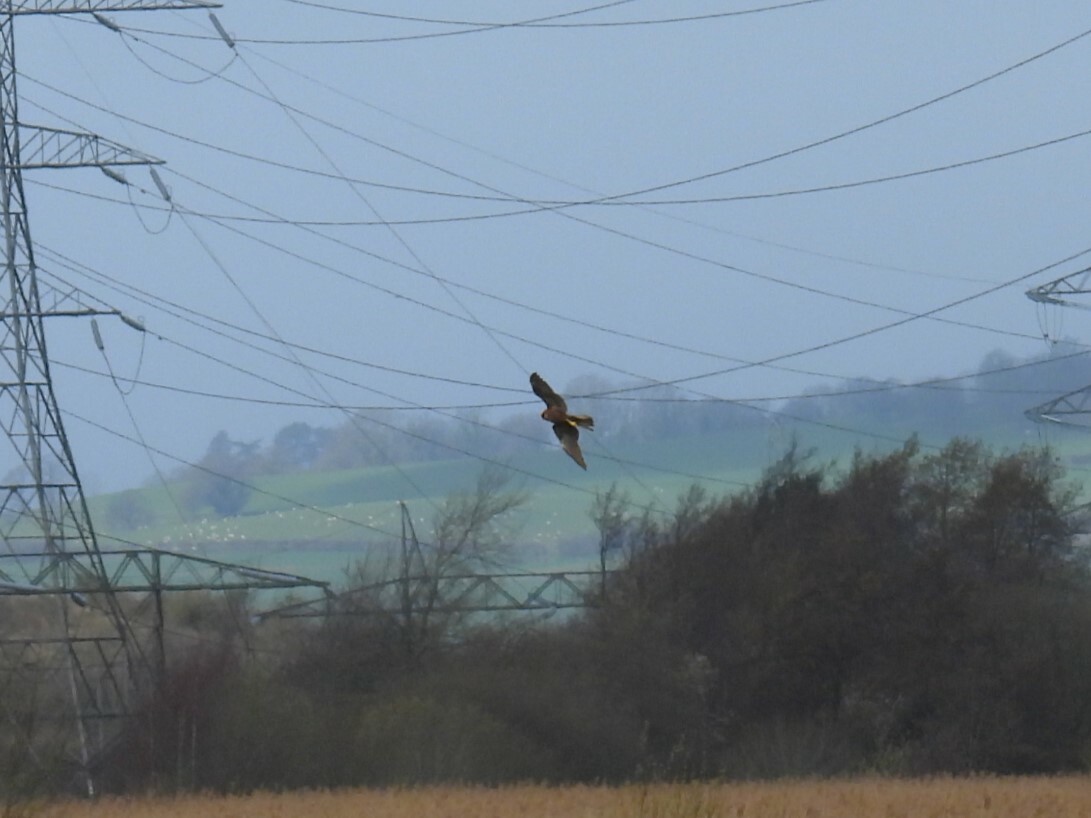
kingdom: Animalia
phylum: Chordata
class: Aves
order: Accipitriformes
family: Accipitridae
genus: Circus
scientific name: Circus aeruginosus
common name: Western marsh harrier
